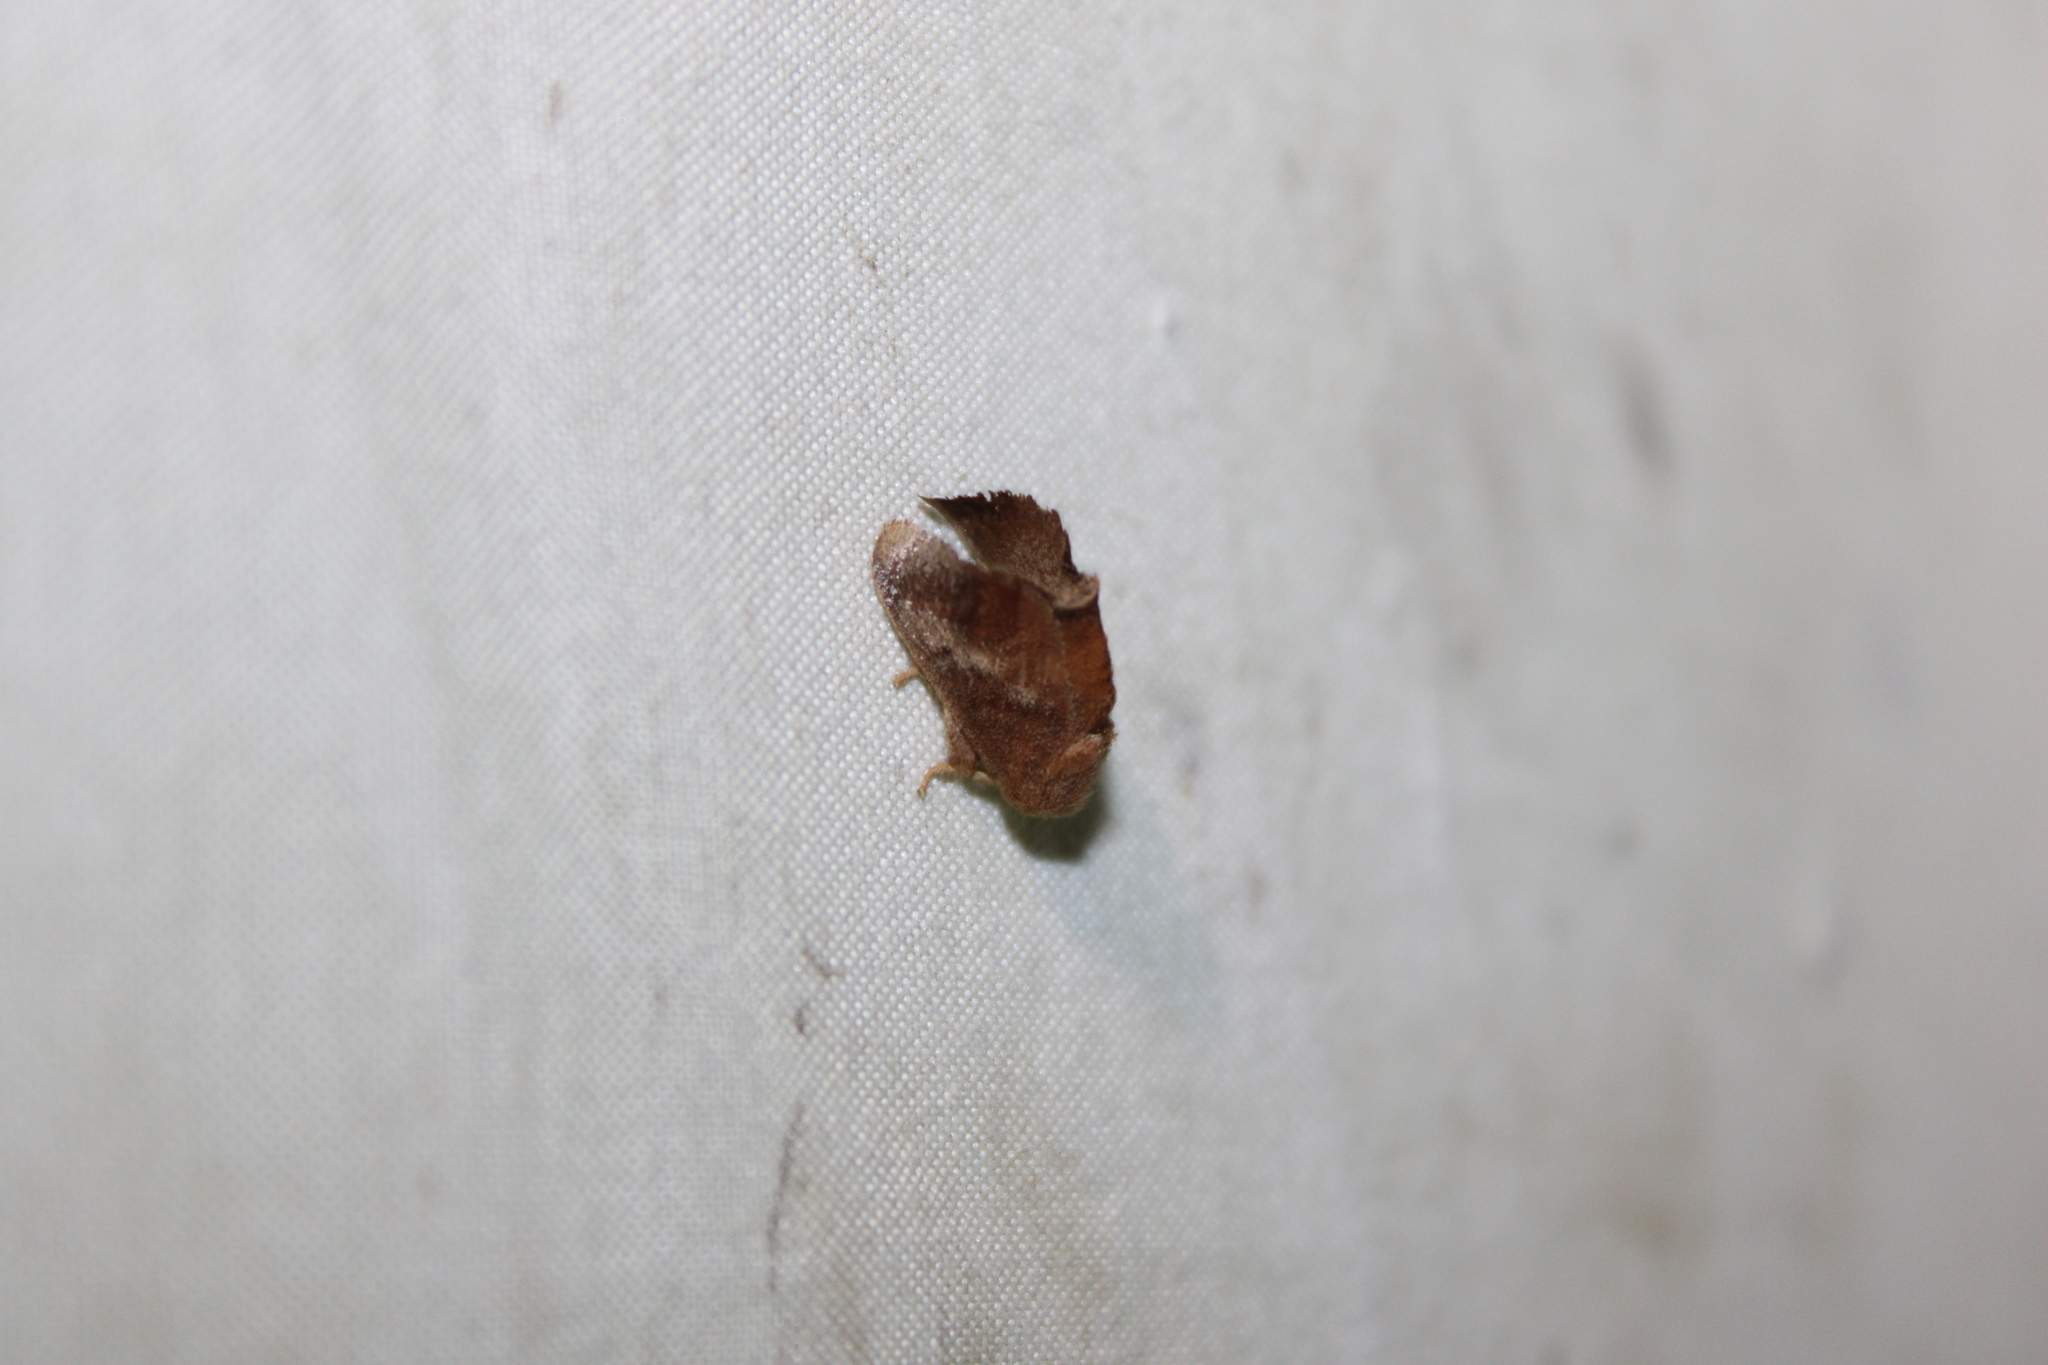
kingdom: Animalia
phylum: Arthropoda
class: Insecta
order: Lepidoptera
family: Limacodidae
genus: Isa
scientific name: Isa textula
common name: Crowned slug moth
